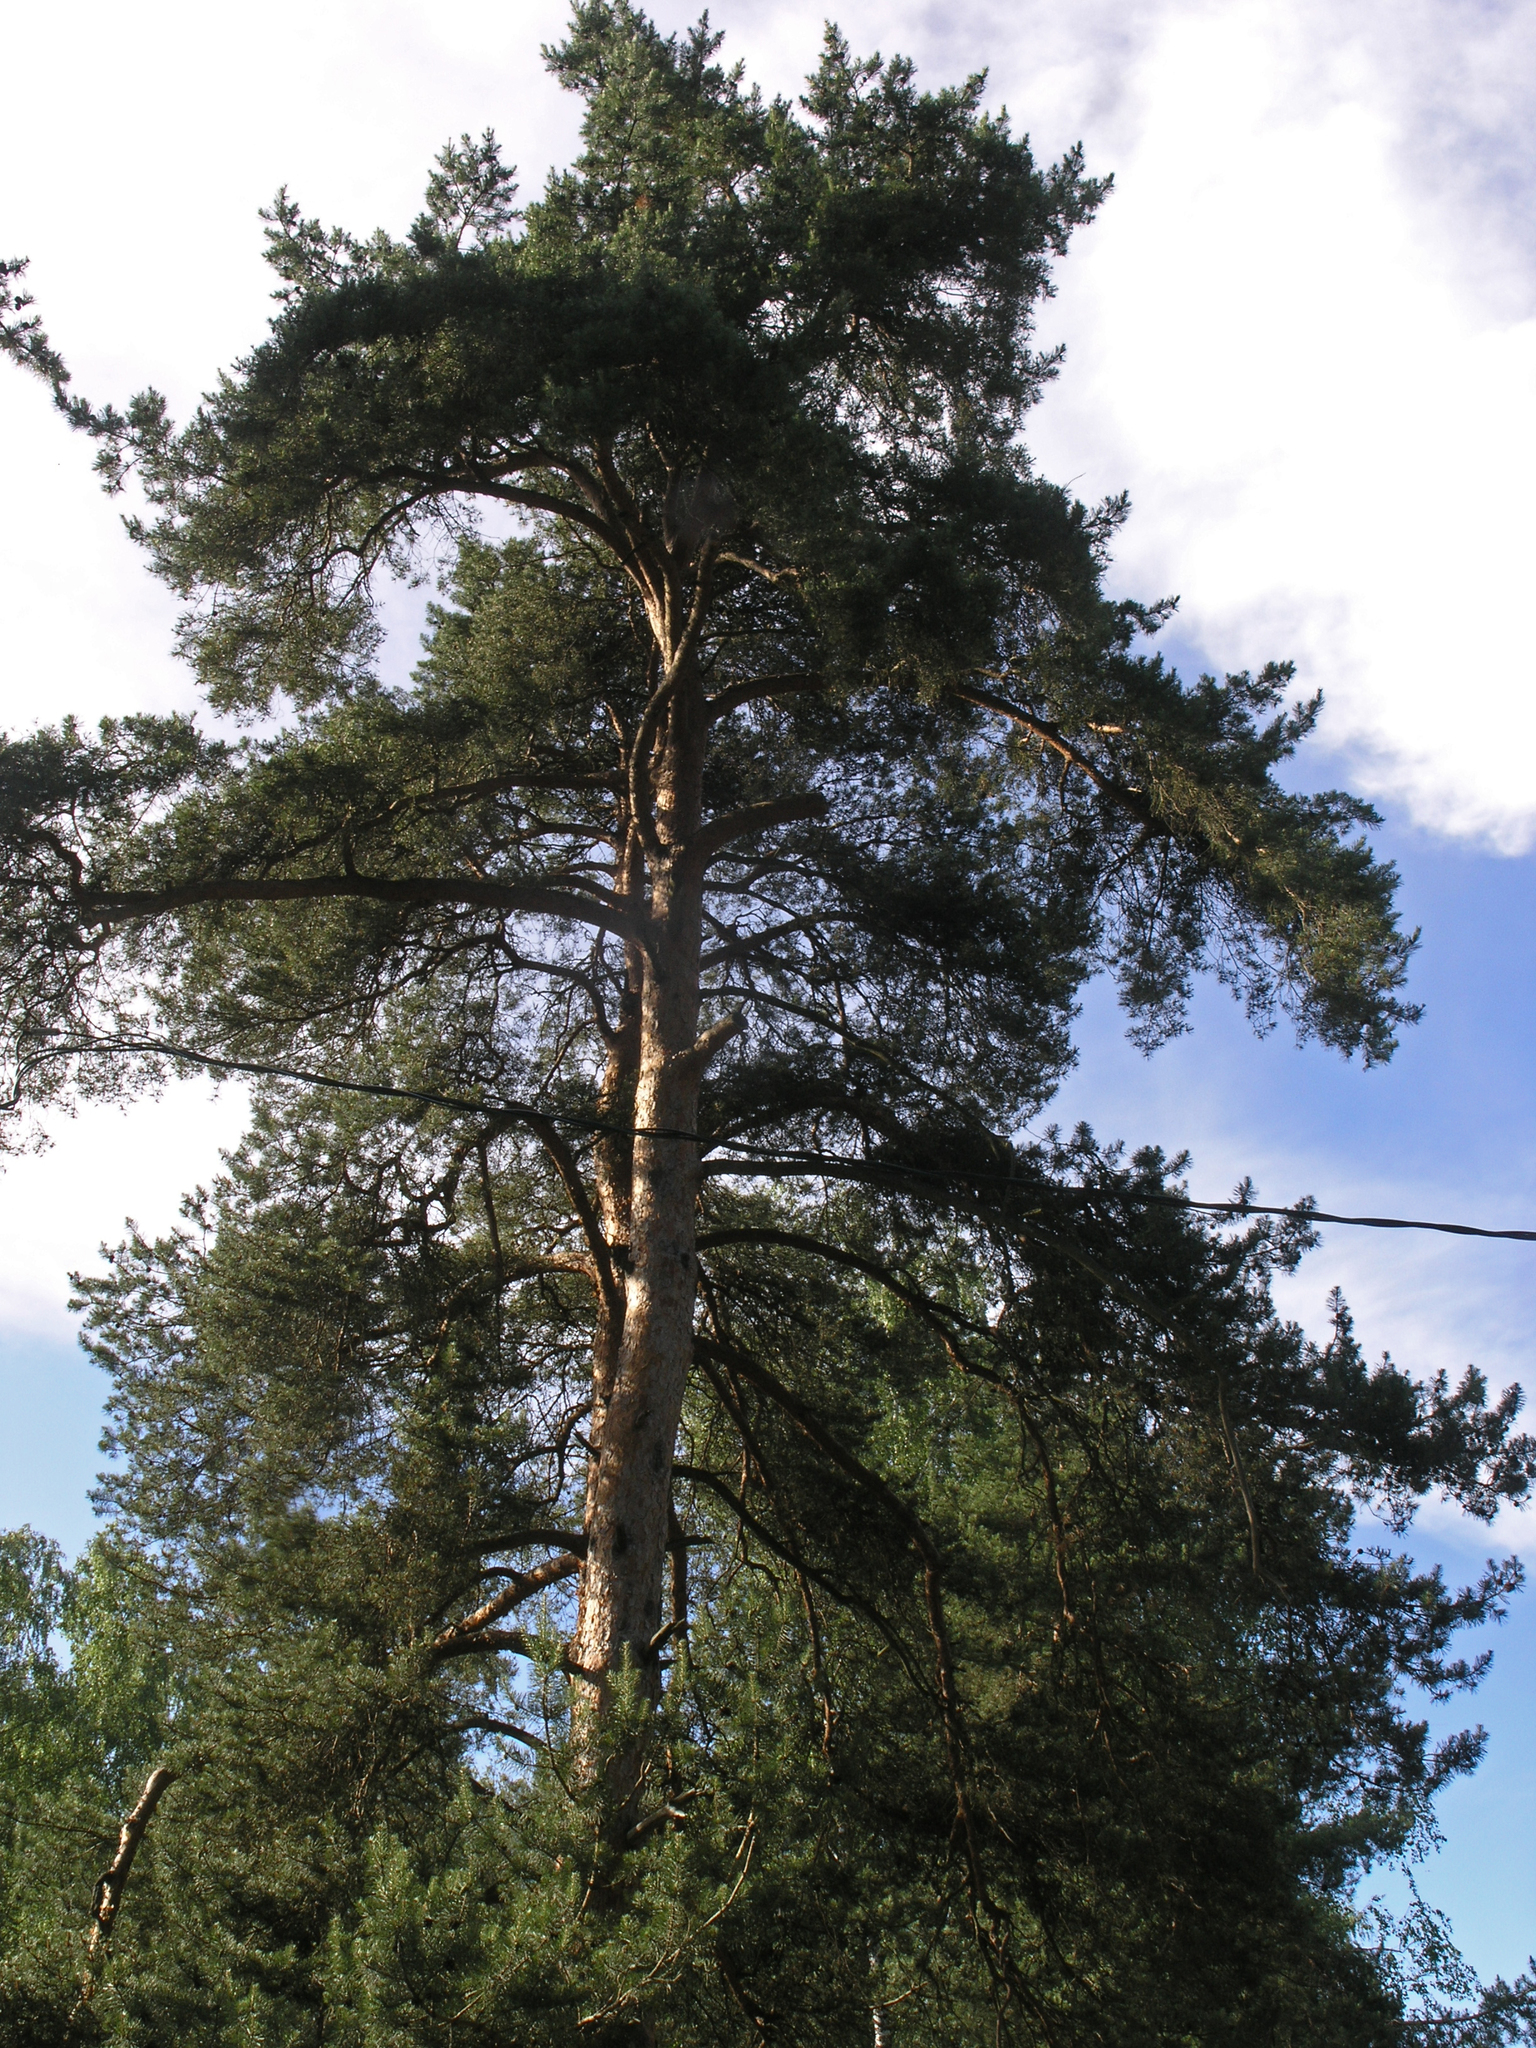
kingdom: Plantae
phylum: Tracheophyta
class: Pinopsida
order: Pinales
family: Pinaceae
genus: Pinus
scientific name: Pinus sylvestris
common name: Scots pine
